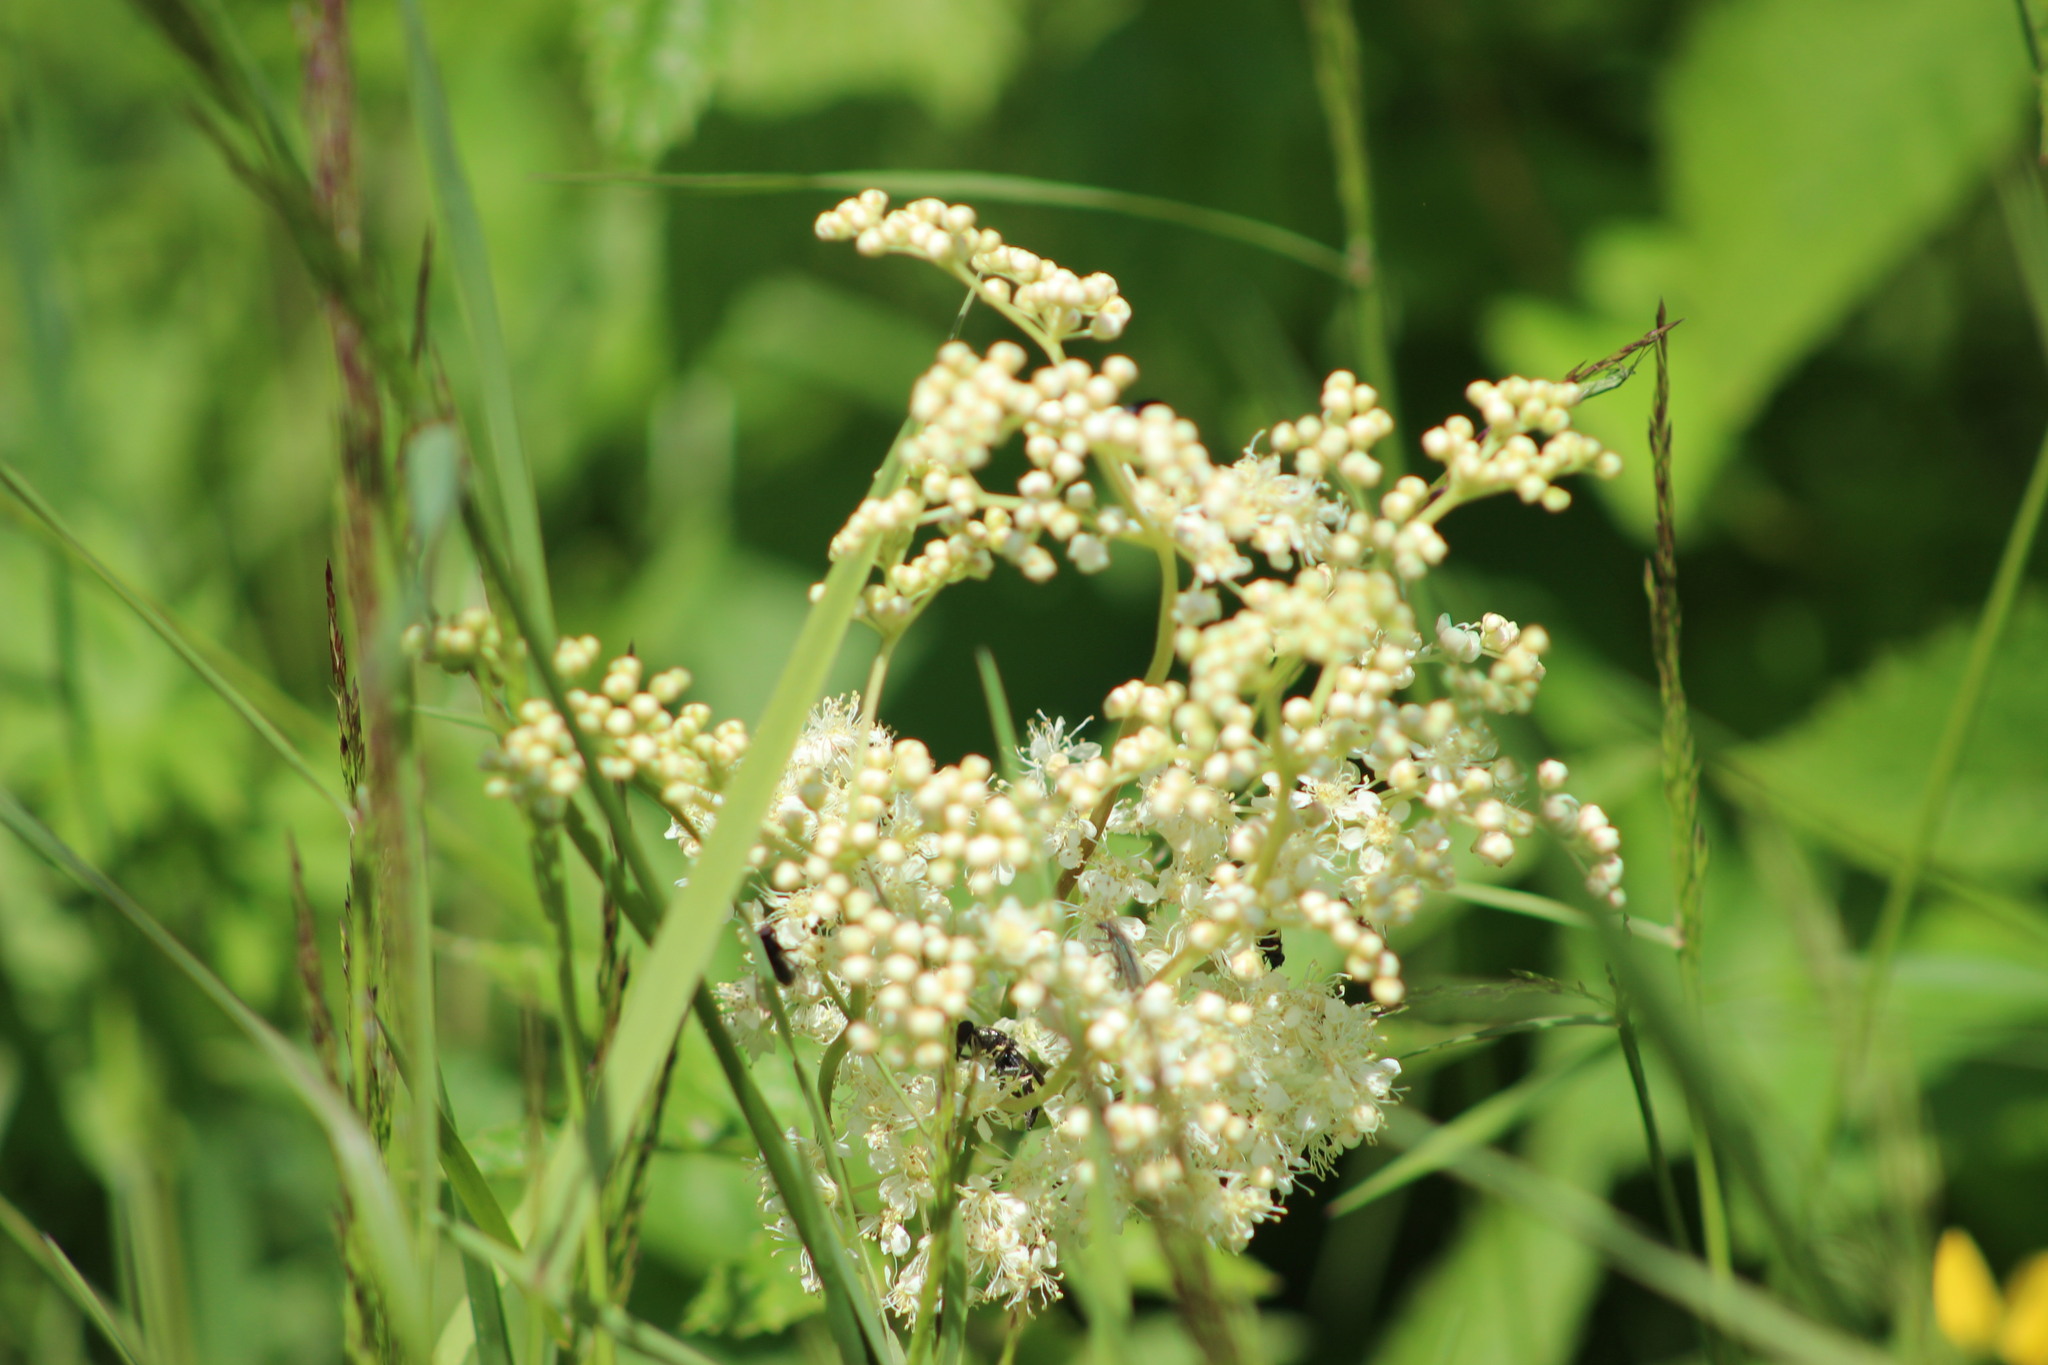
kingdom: Plantae
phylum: Tracheophyta
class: Magnoliopsida
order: Rosales
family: Rosaceae
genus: Filipendula
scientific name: Filipendula ulmaria
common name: Meadowsweet
